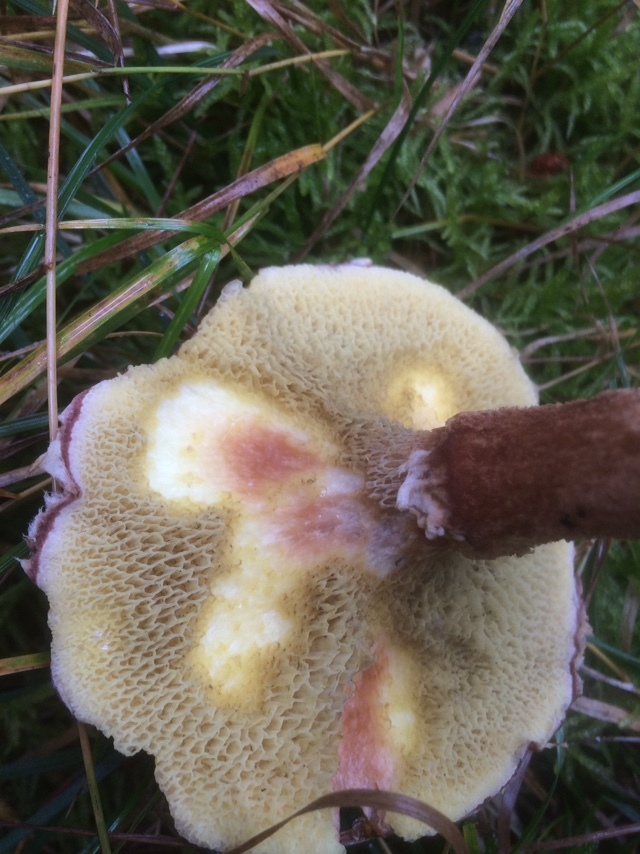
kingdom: Fungi
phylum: Basidiomycota
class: Agaricomycetes
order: Boletales
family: Suillaceae
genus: Suillus
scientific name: Suillus cavipes
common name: Hollow bolete
